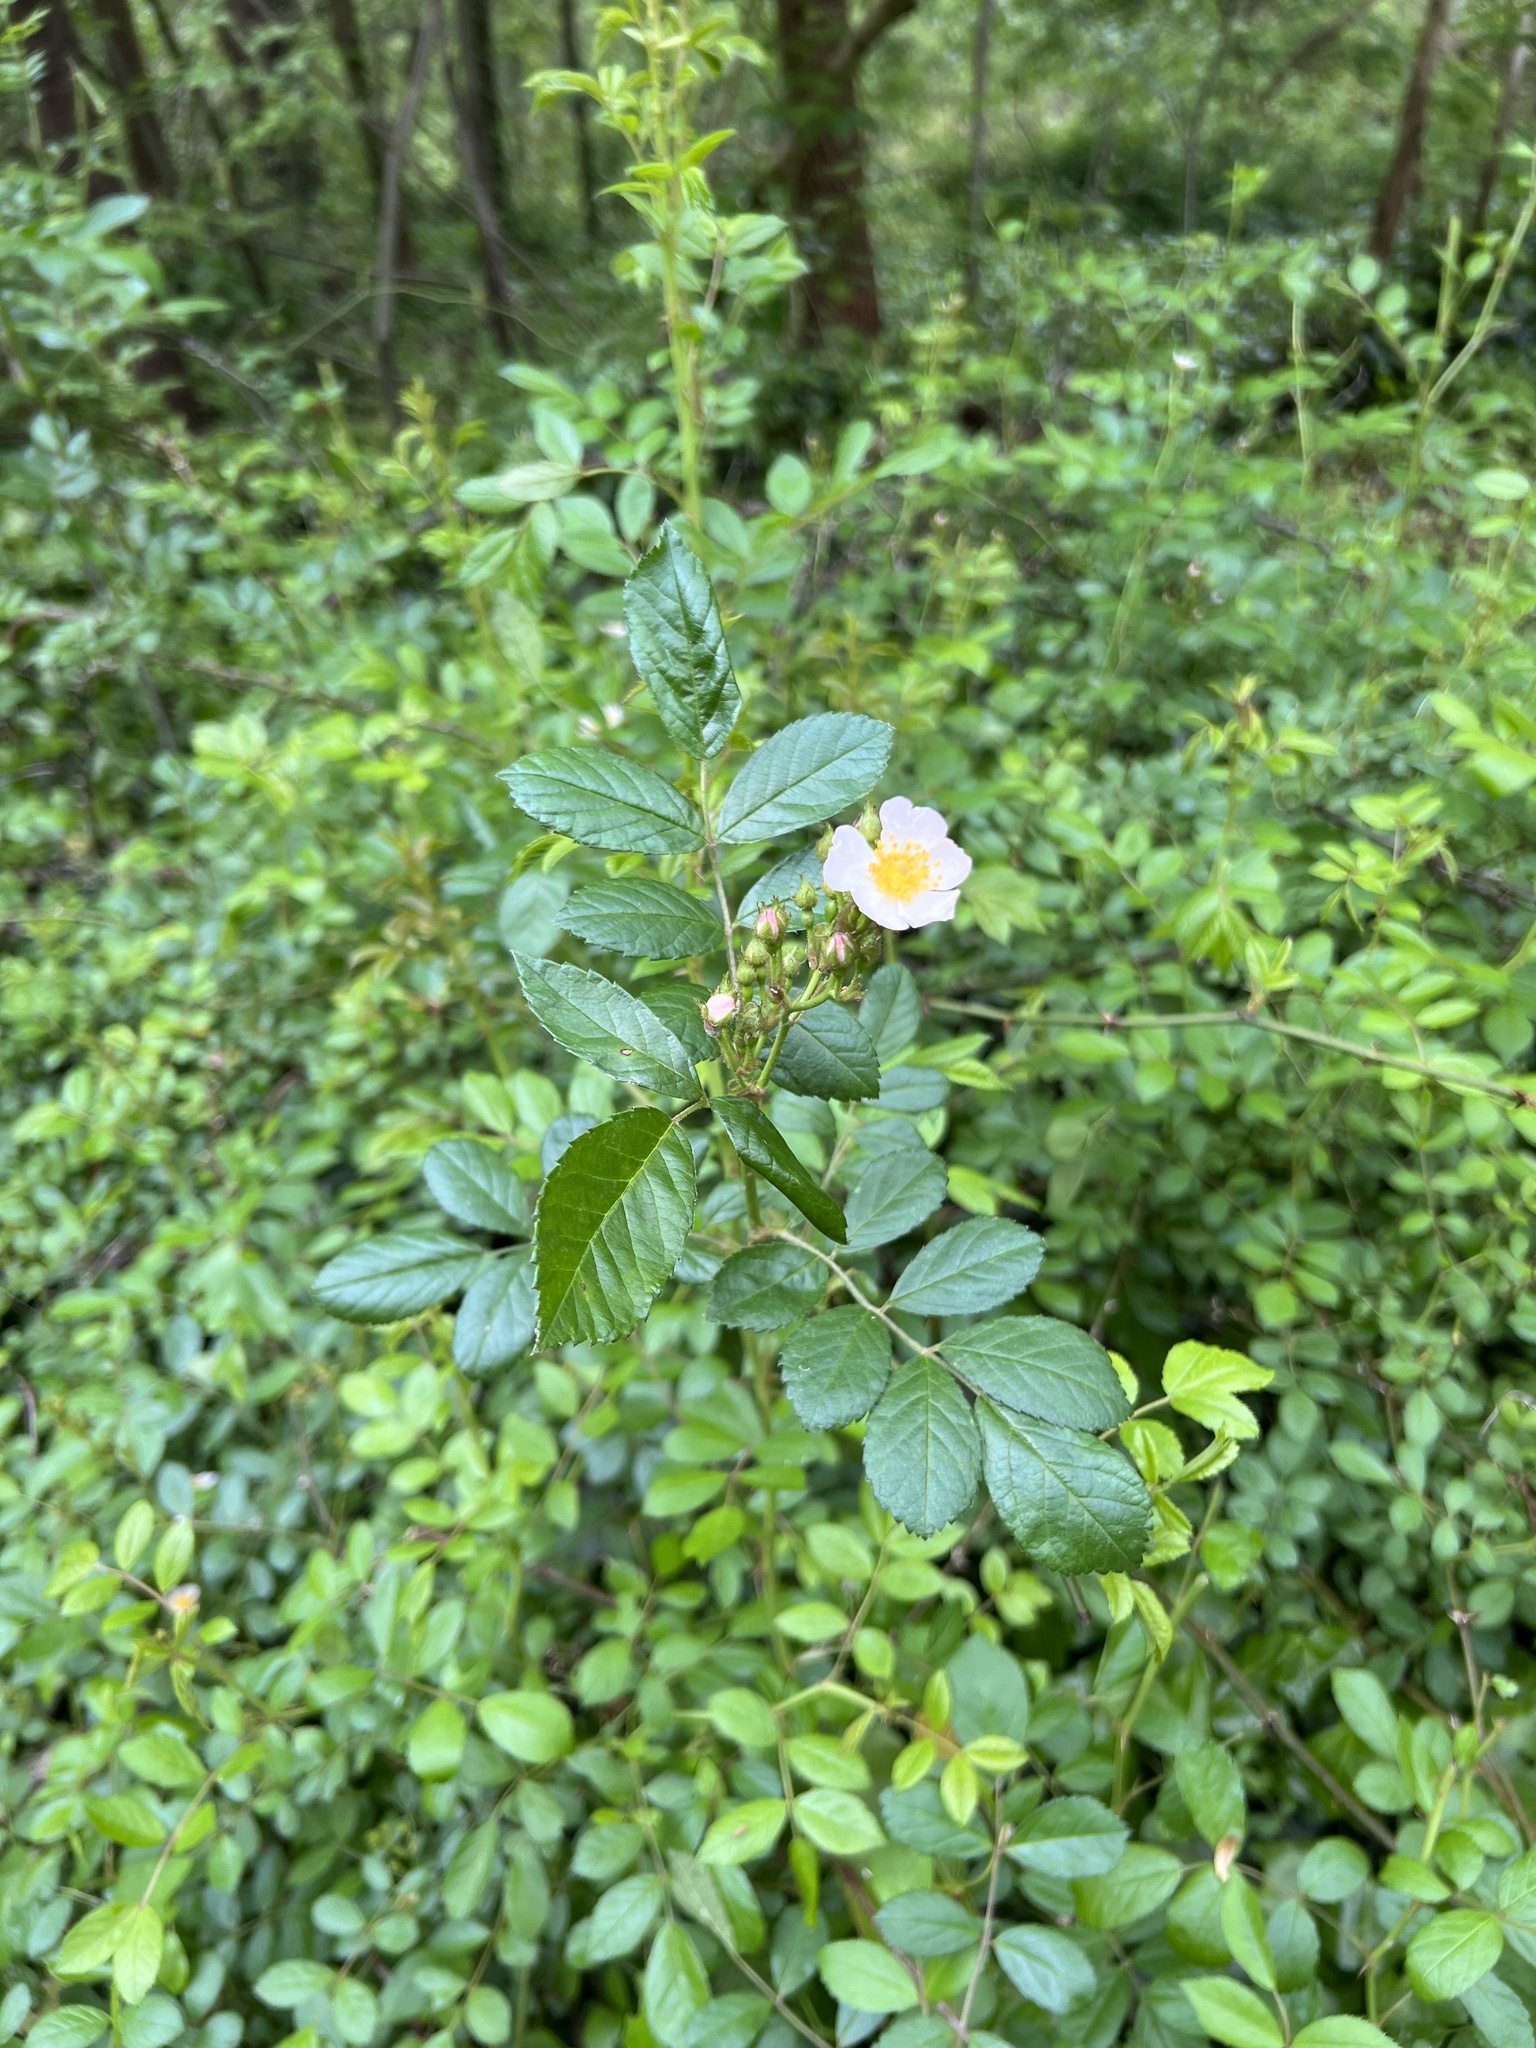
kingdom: Plantae
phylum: Tracheophyta
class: Magnoliopsida
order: Rosales
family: Rosaceae
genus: Rosa
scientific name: Rosa multiflora
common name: Multiflora rose
